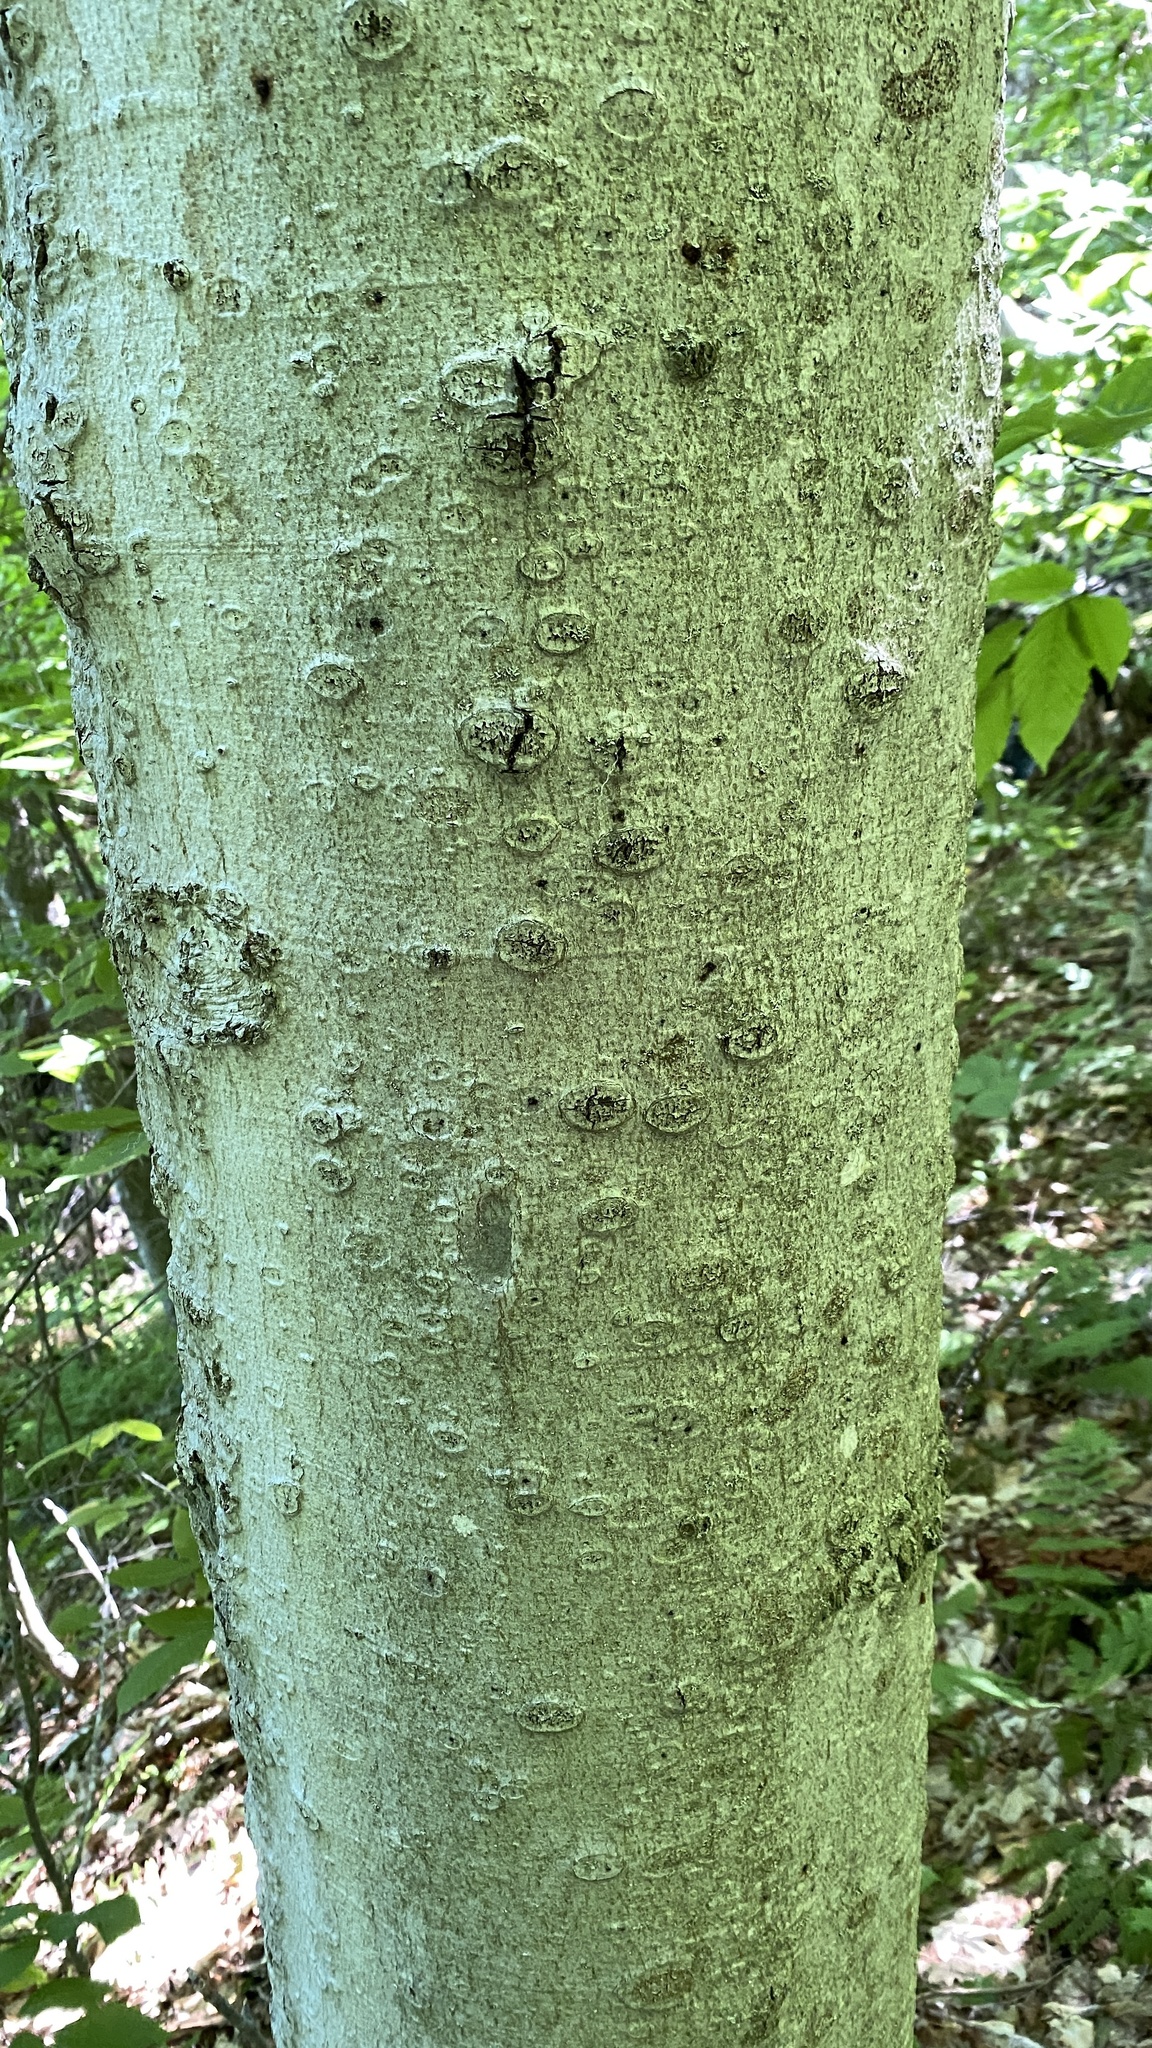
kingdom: Plantae
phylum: Tracheophyta
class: Magnoliopsida
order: Fagales
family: Fagaceae
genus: Fagus
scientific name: Fagus grandifolia
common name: American beech
